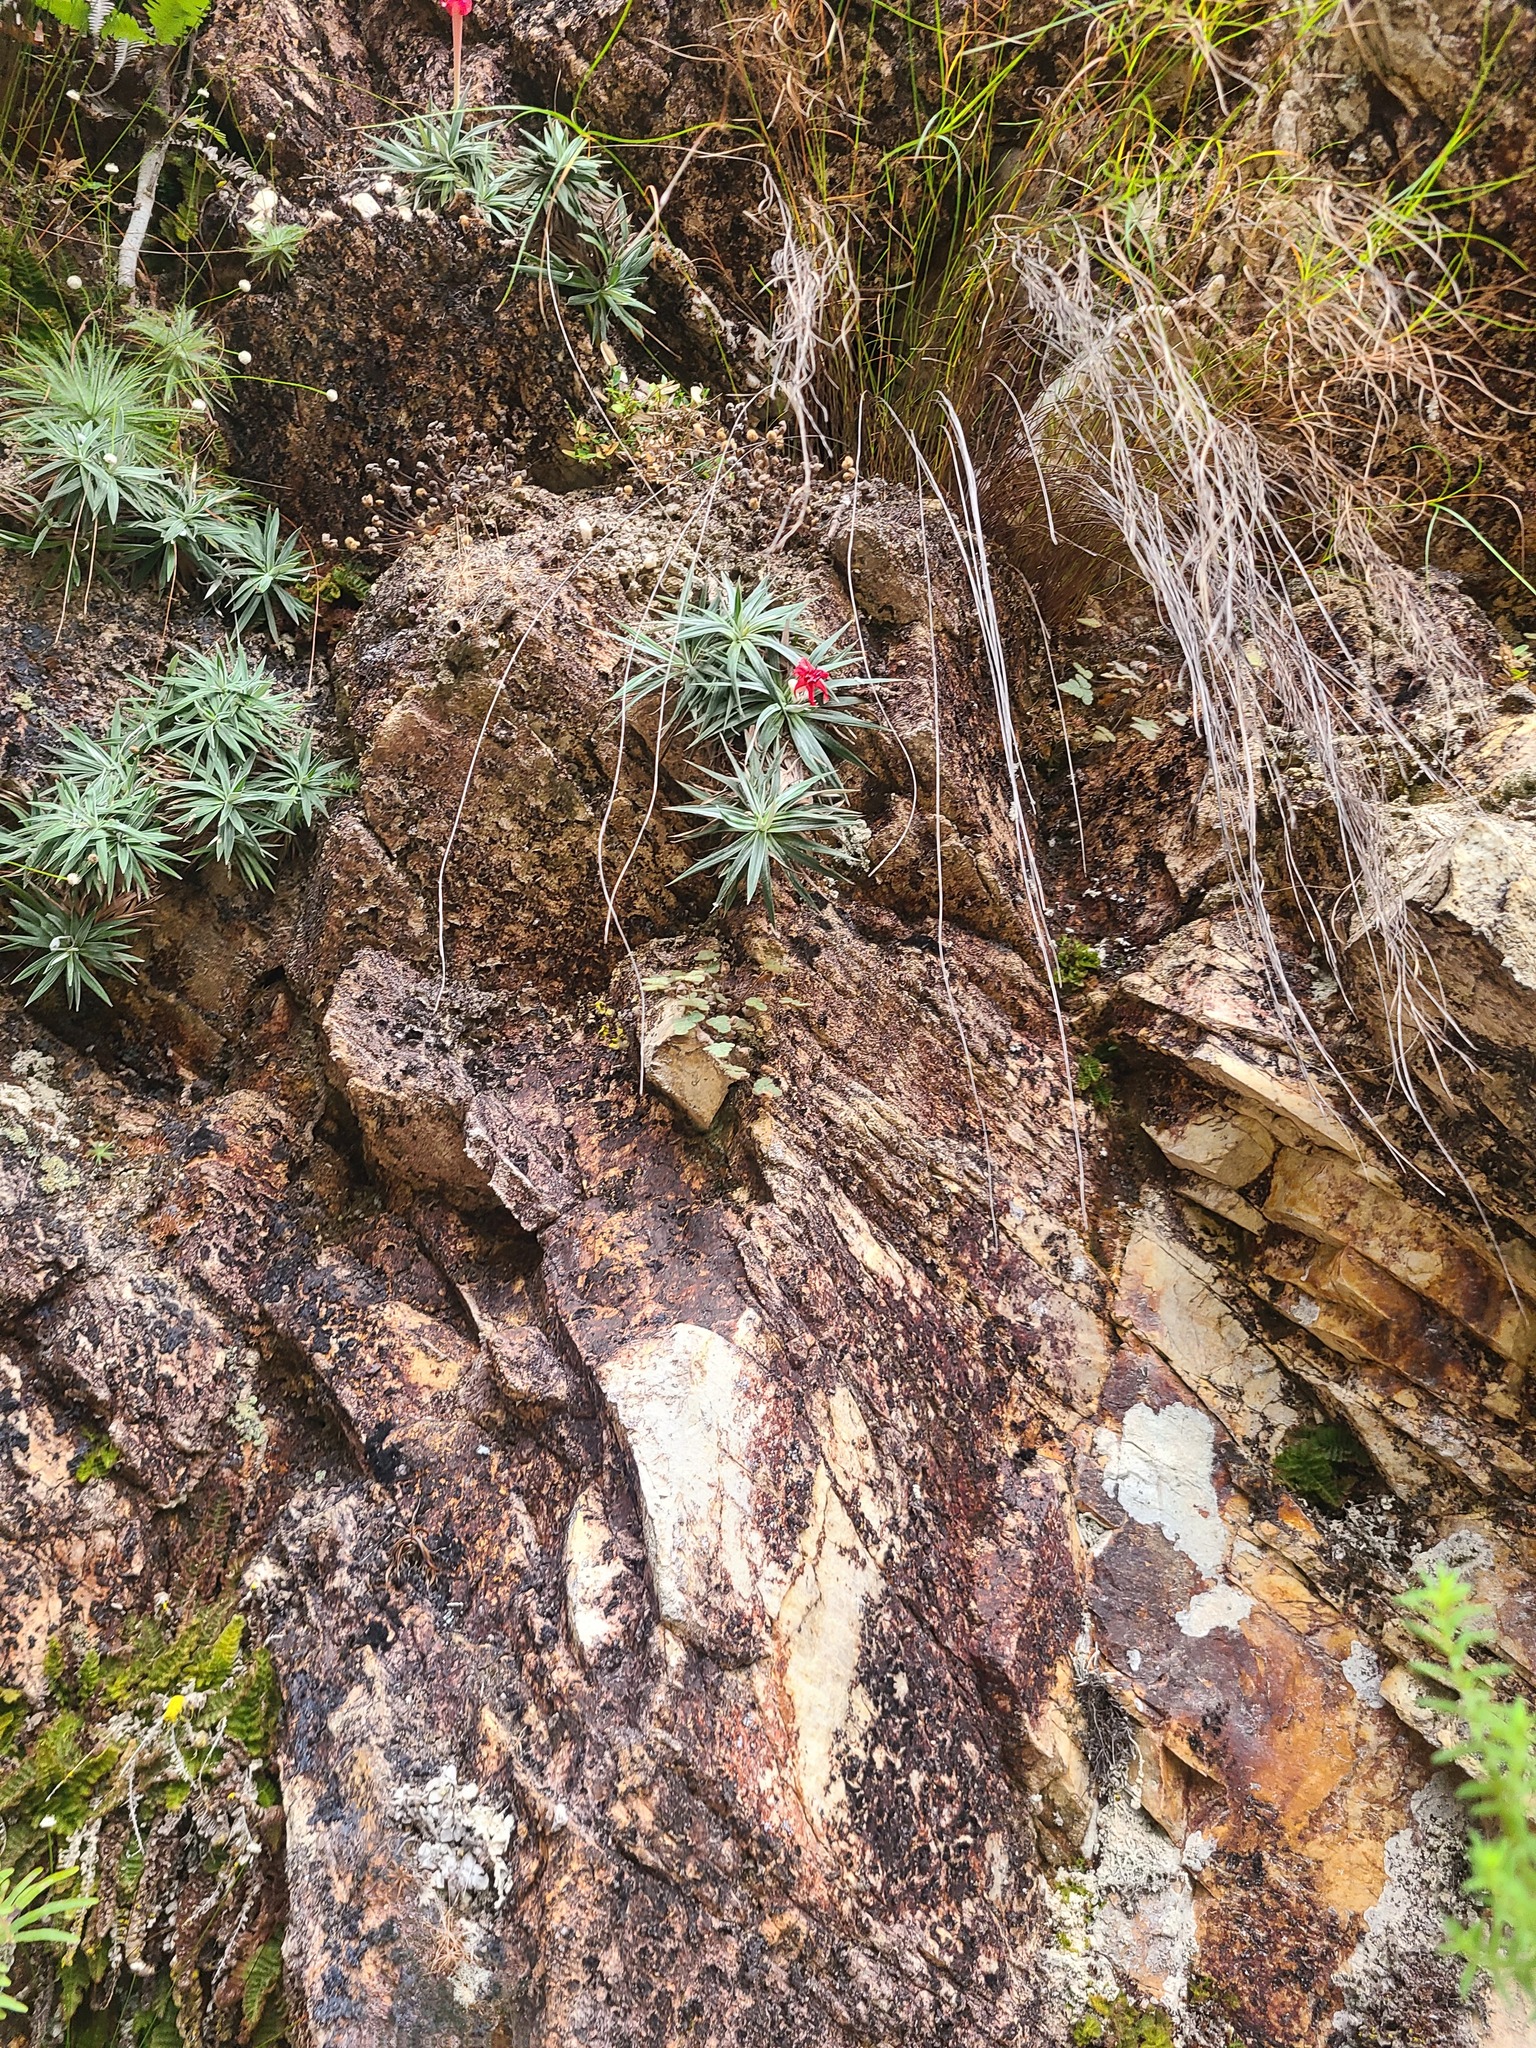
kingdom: Plantae
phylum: Tracheophyta
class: Liliopsida
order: Pandanales
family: Velloziaceae
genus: Barbacenia
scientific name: Barbacenia pulverulenta
